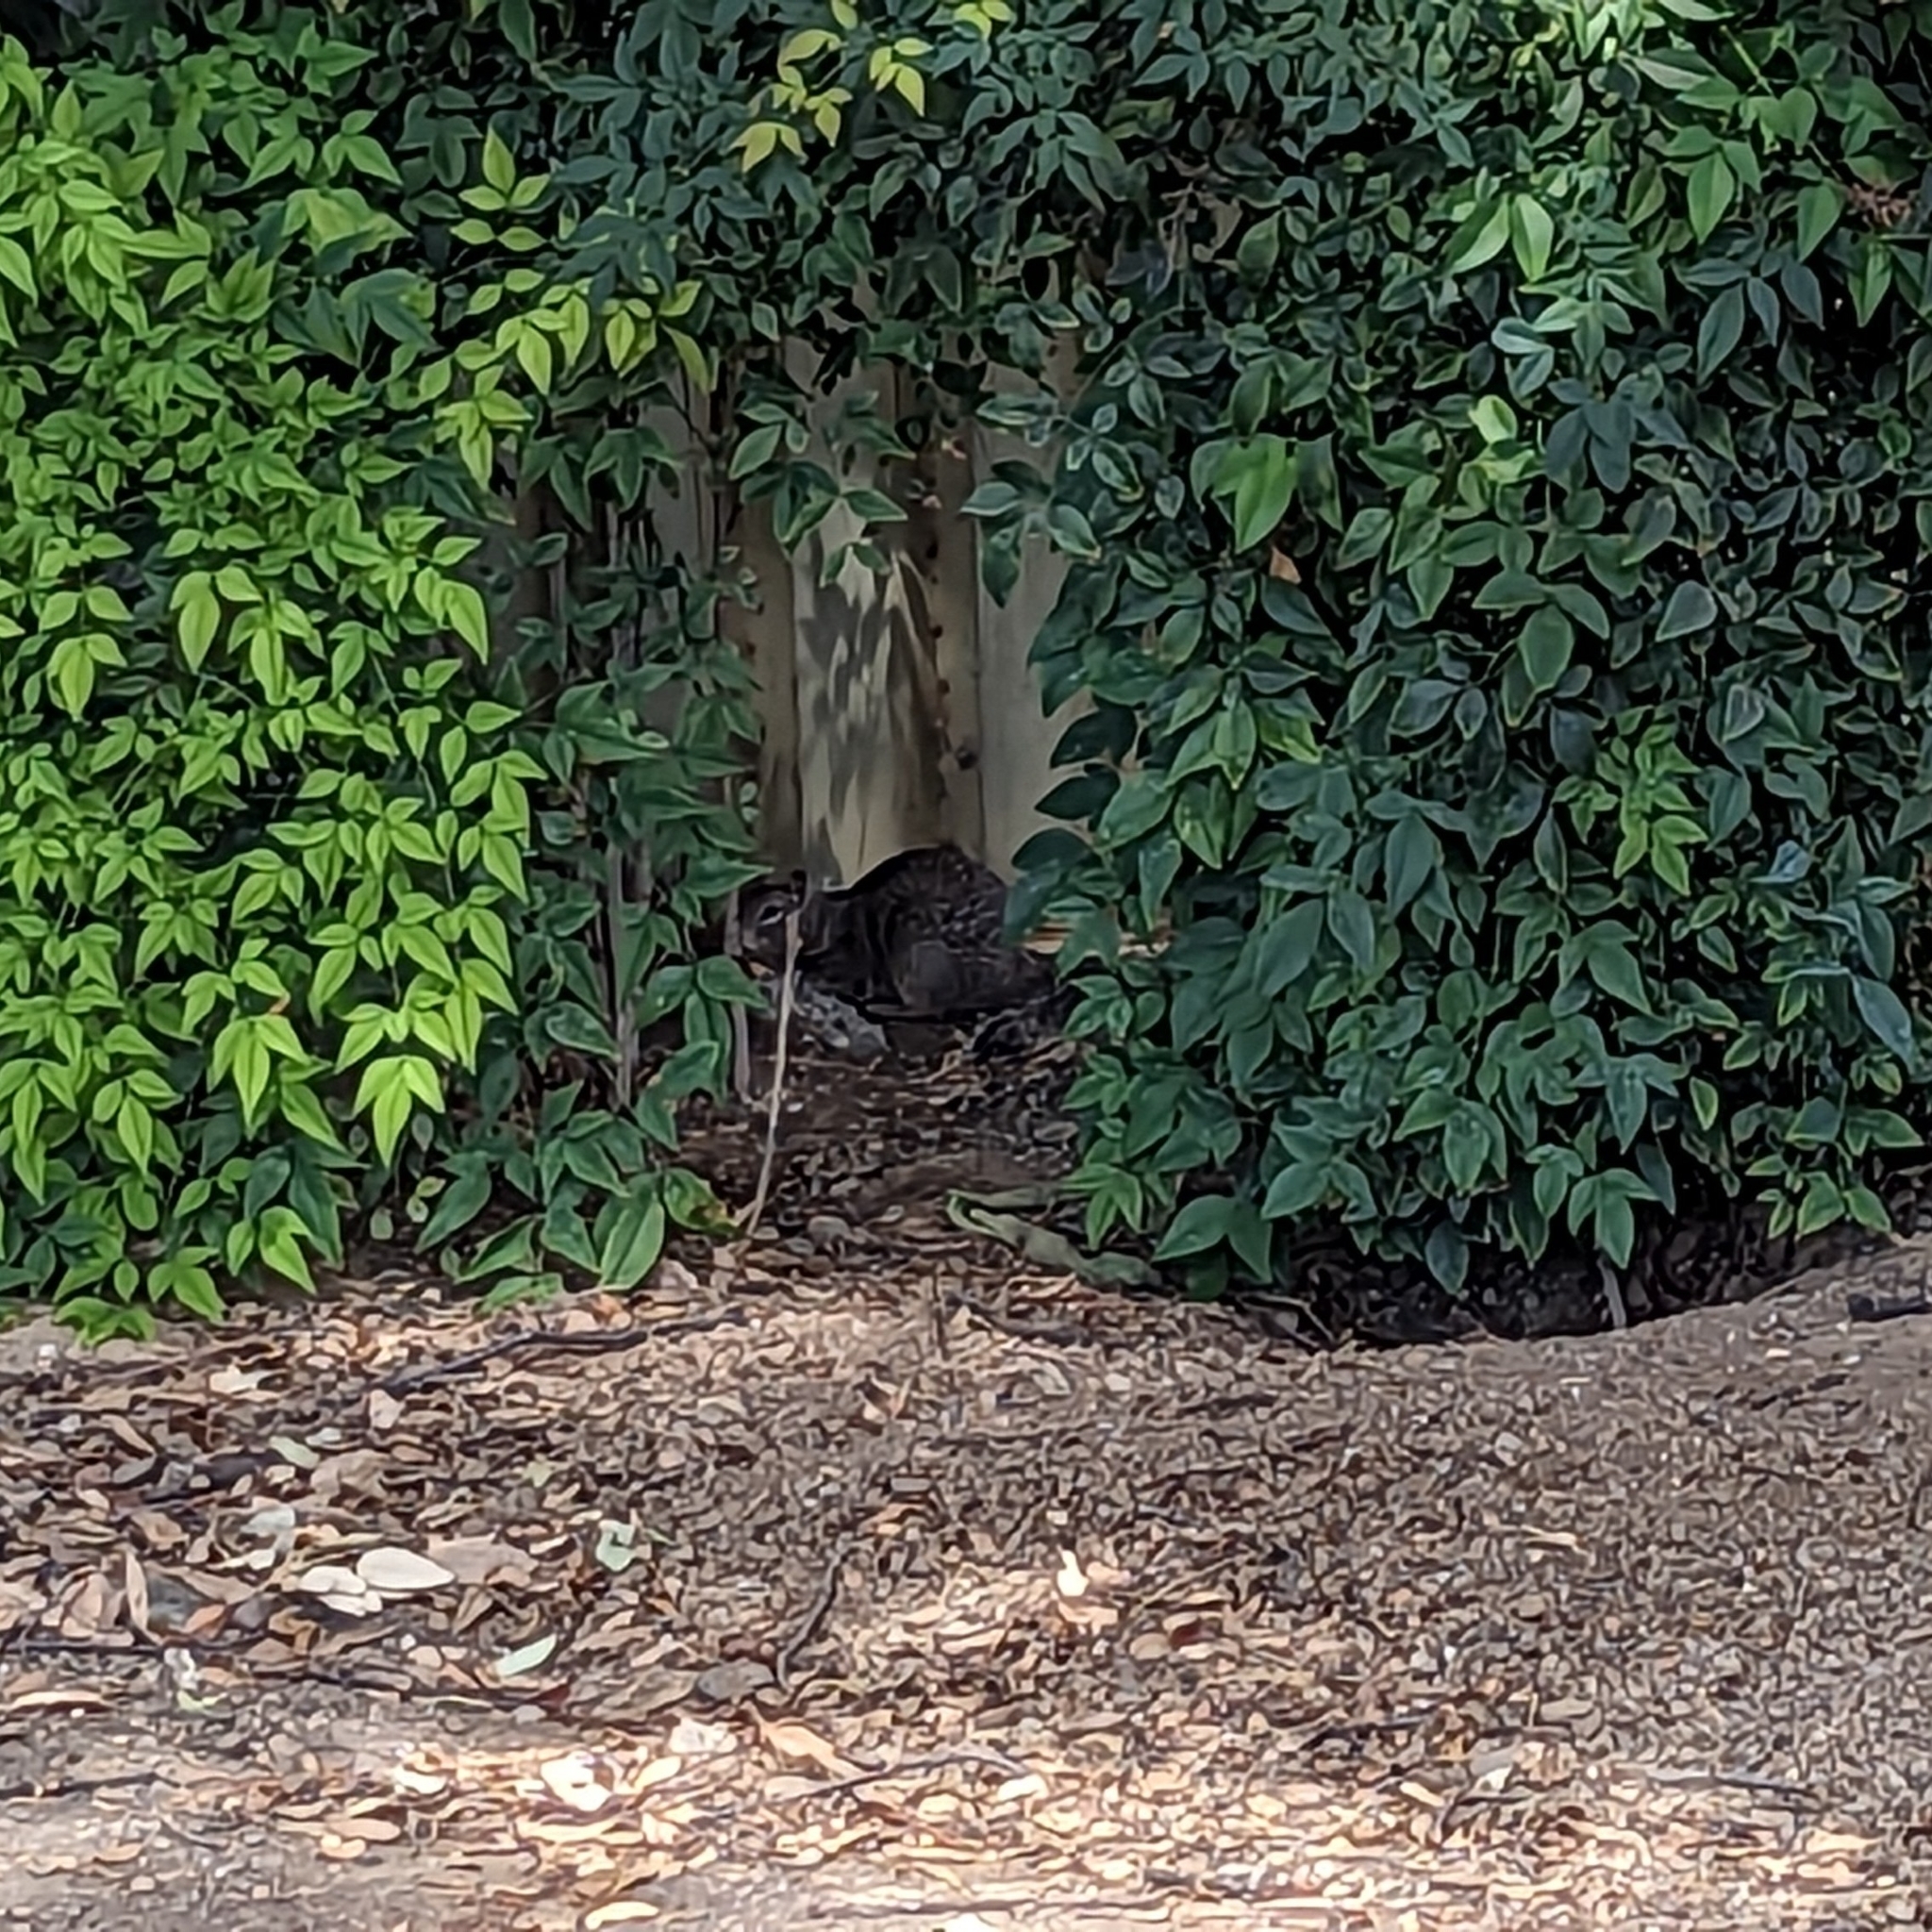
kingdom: Animalia
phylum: Chordata
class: Mammalia
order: Rodentia
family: Sciuridae
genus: Otospermophilus
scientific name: Otospermophilus beecheyi
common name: California ground squirrel
